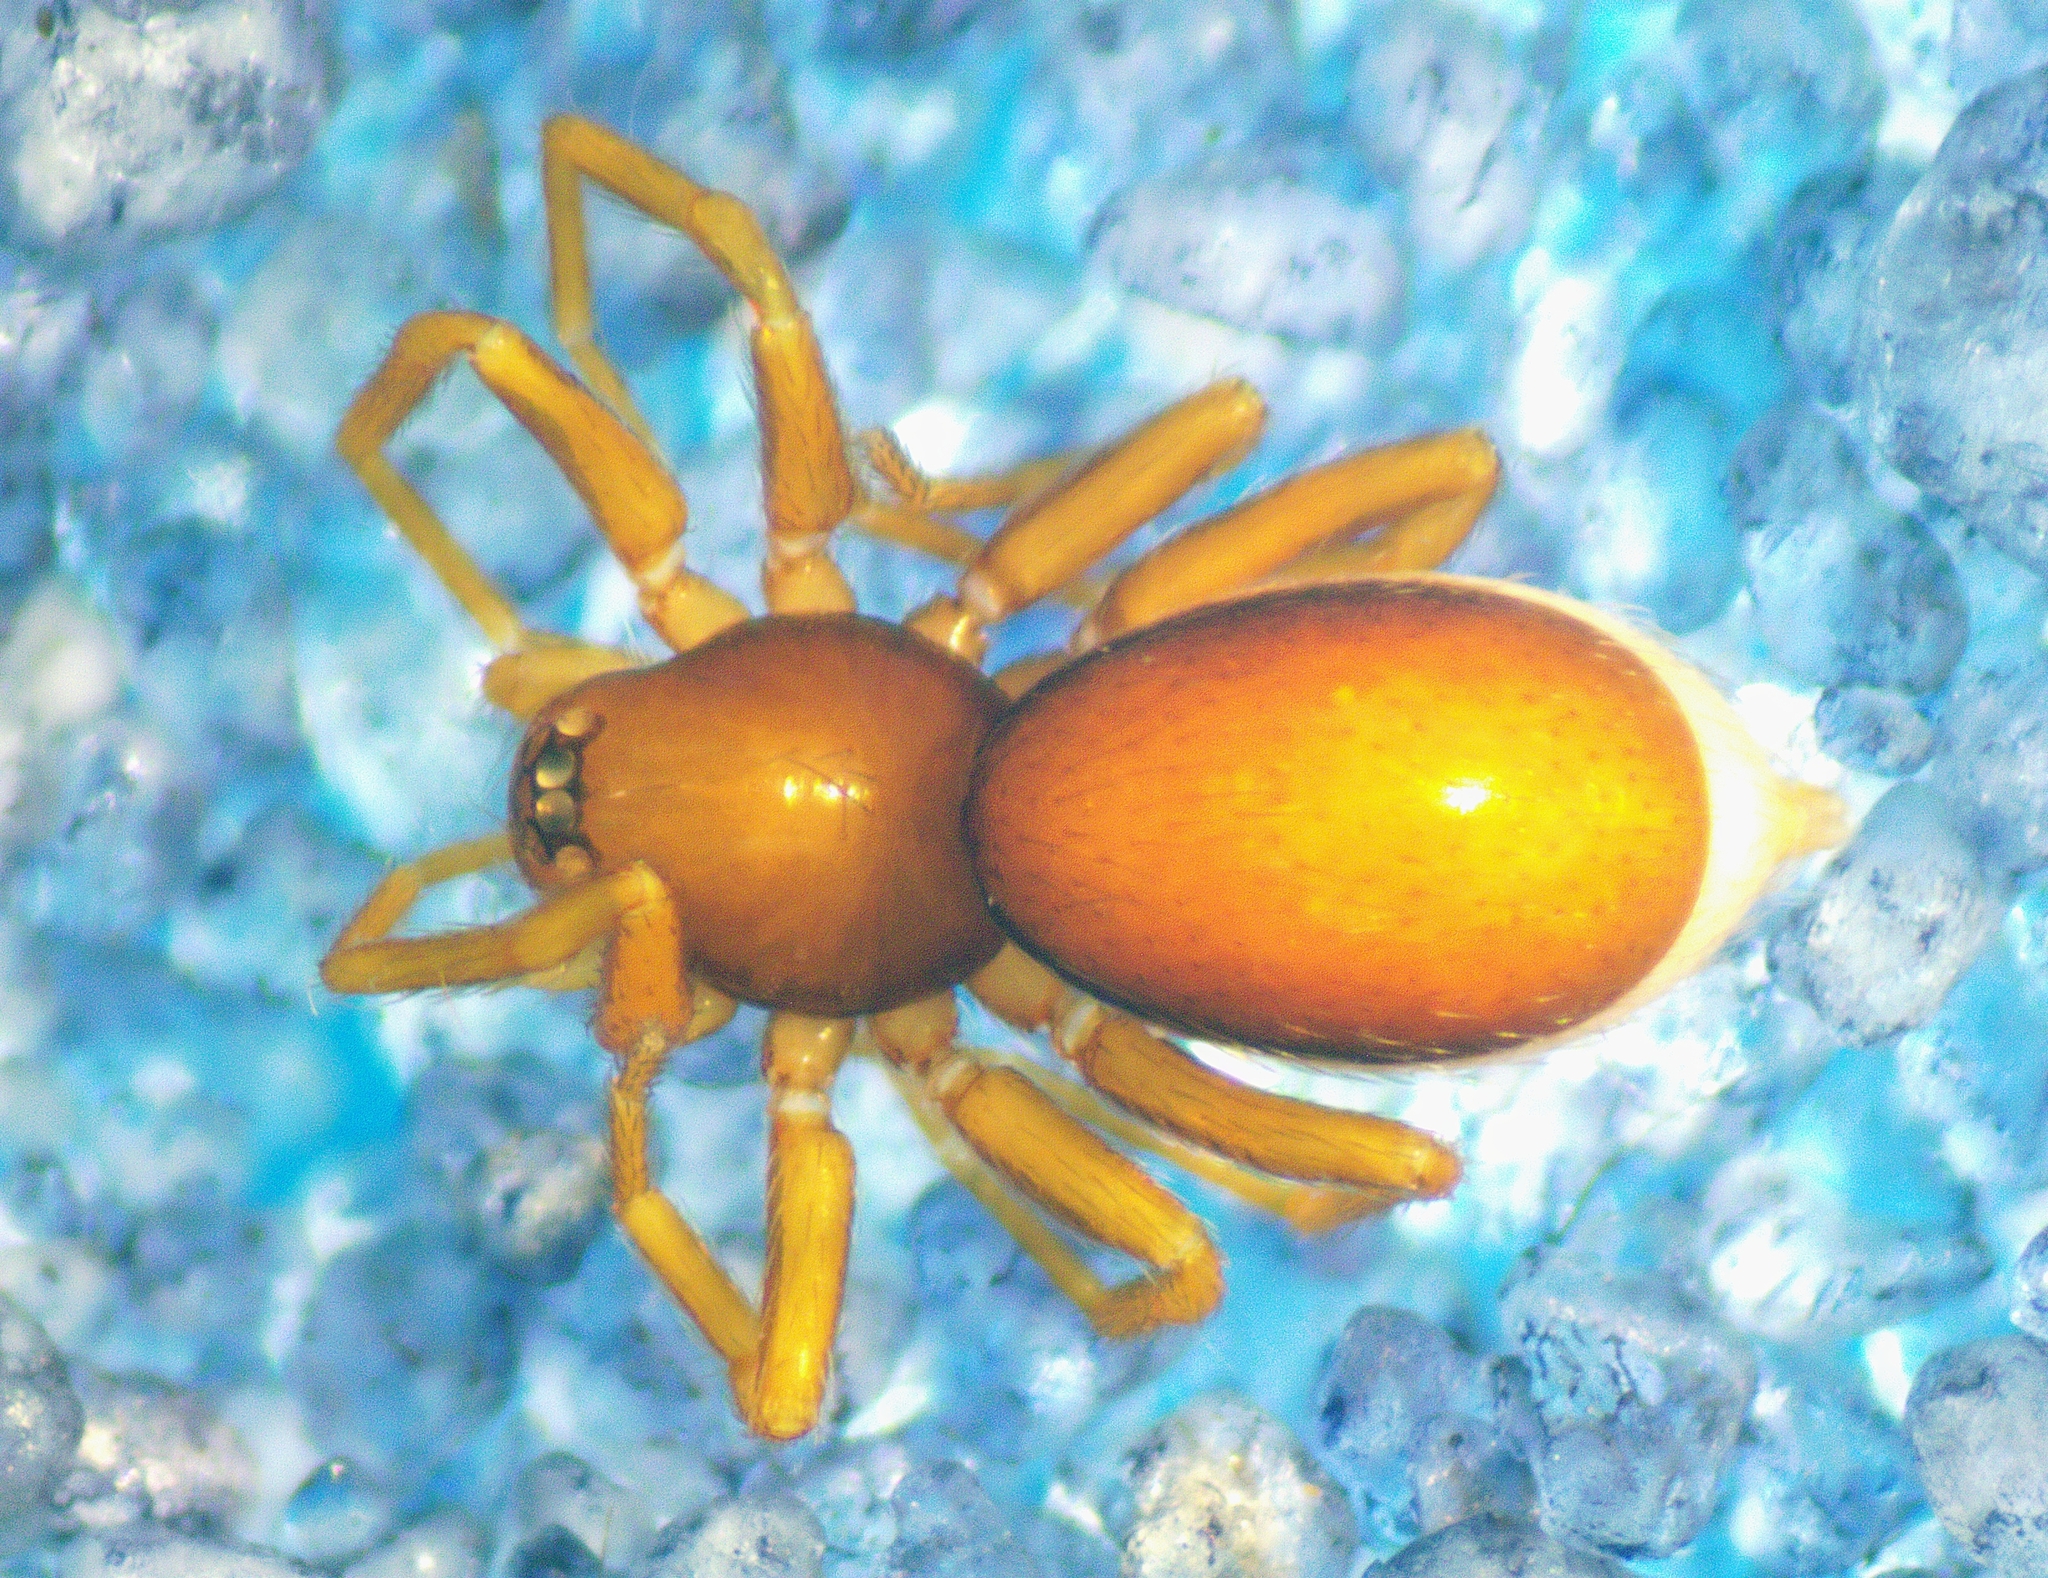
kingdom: Animalia
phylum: Arthropoda
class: Arachnida
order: Araneae
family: Oonopidae
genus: Pelicinus
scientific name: Pelicinus
